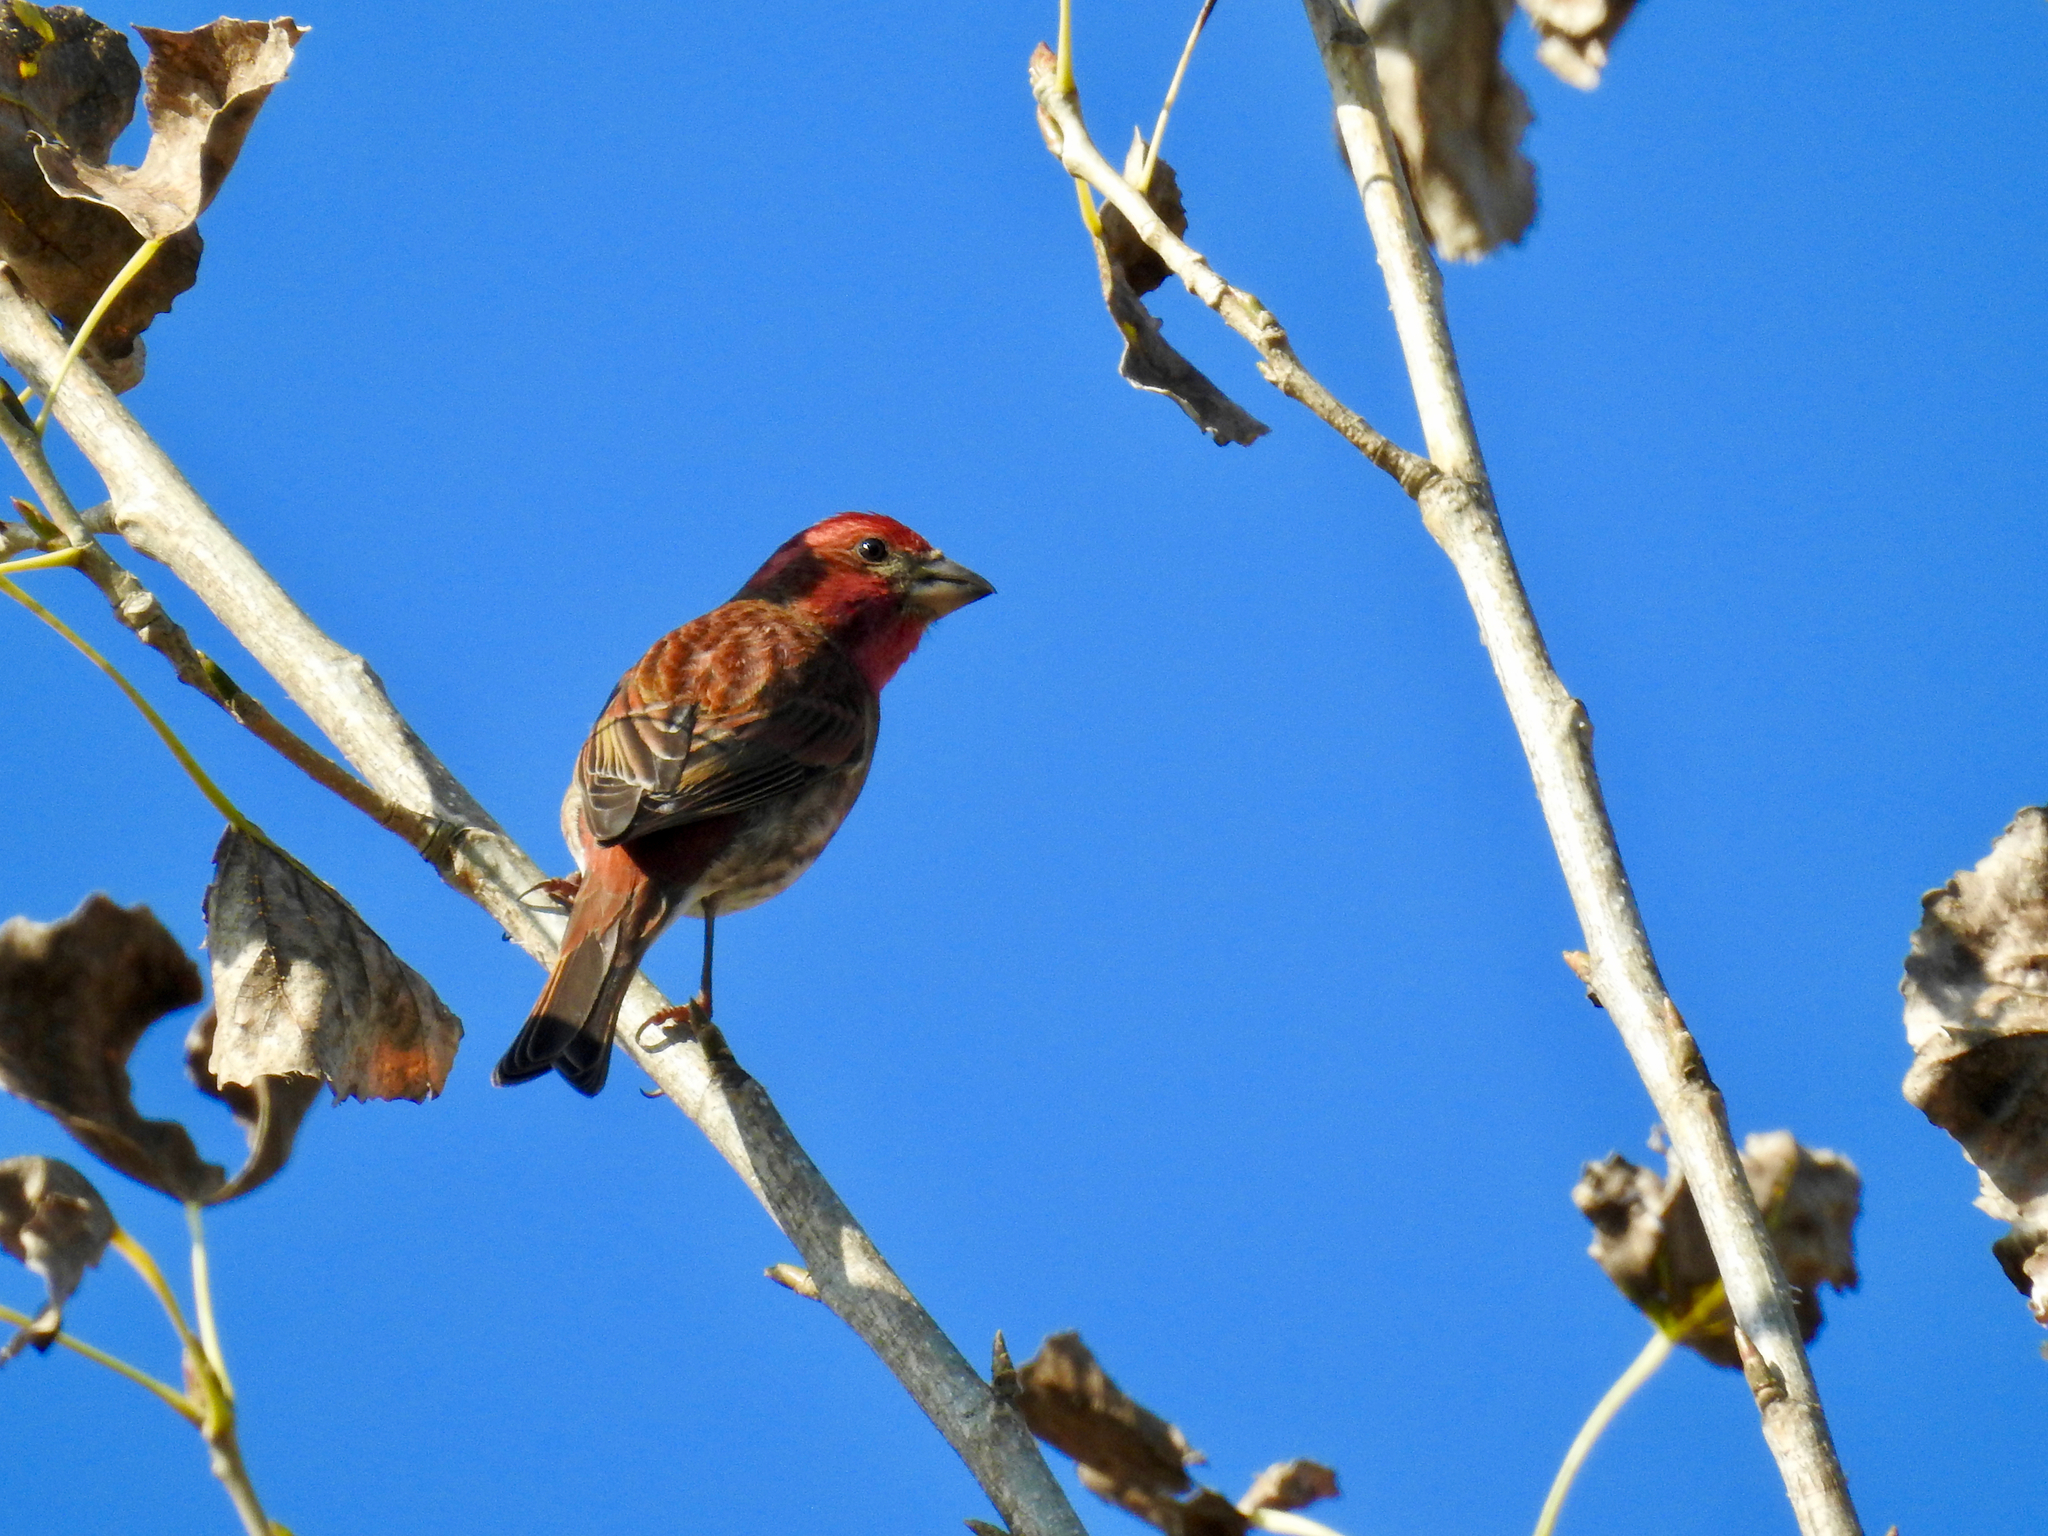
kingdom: Animalia
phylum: Chordata
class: Aves
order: Passeriformes
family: Fringillidae
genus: Haemorhous
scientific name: Haemorhous purpureus
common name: Purple finch
